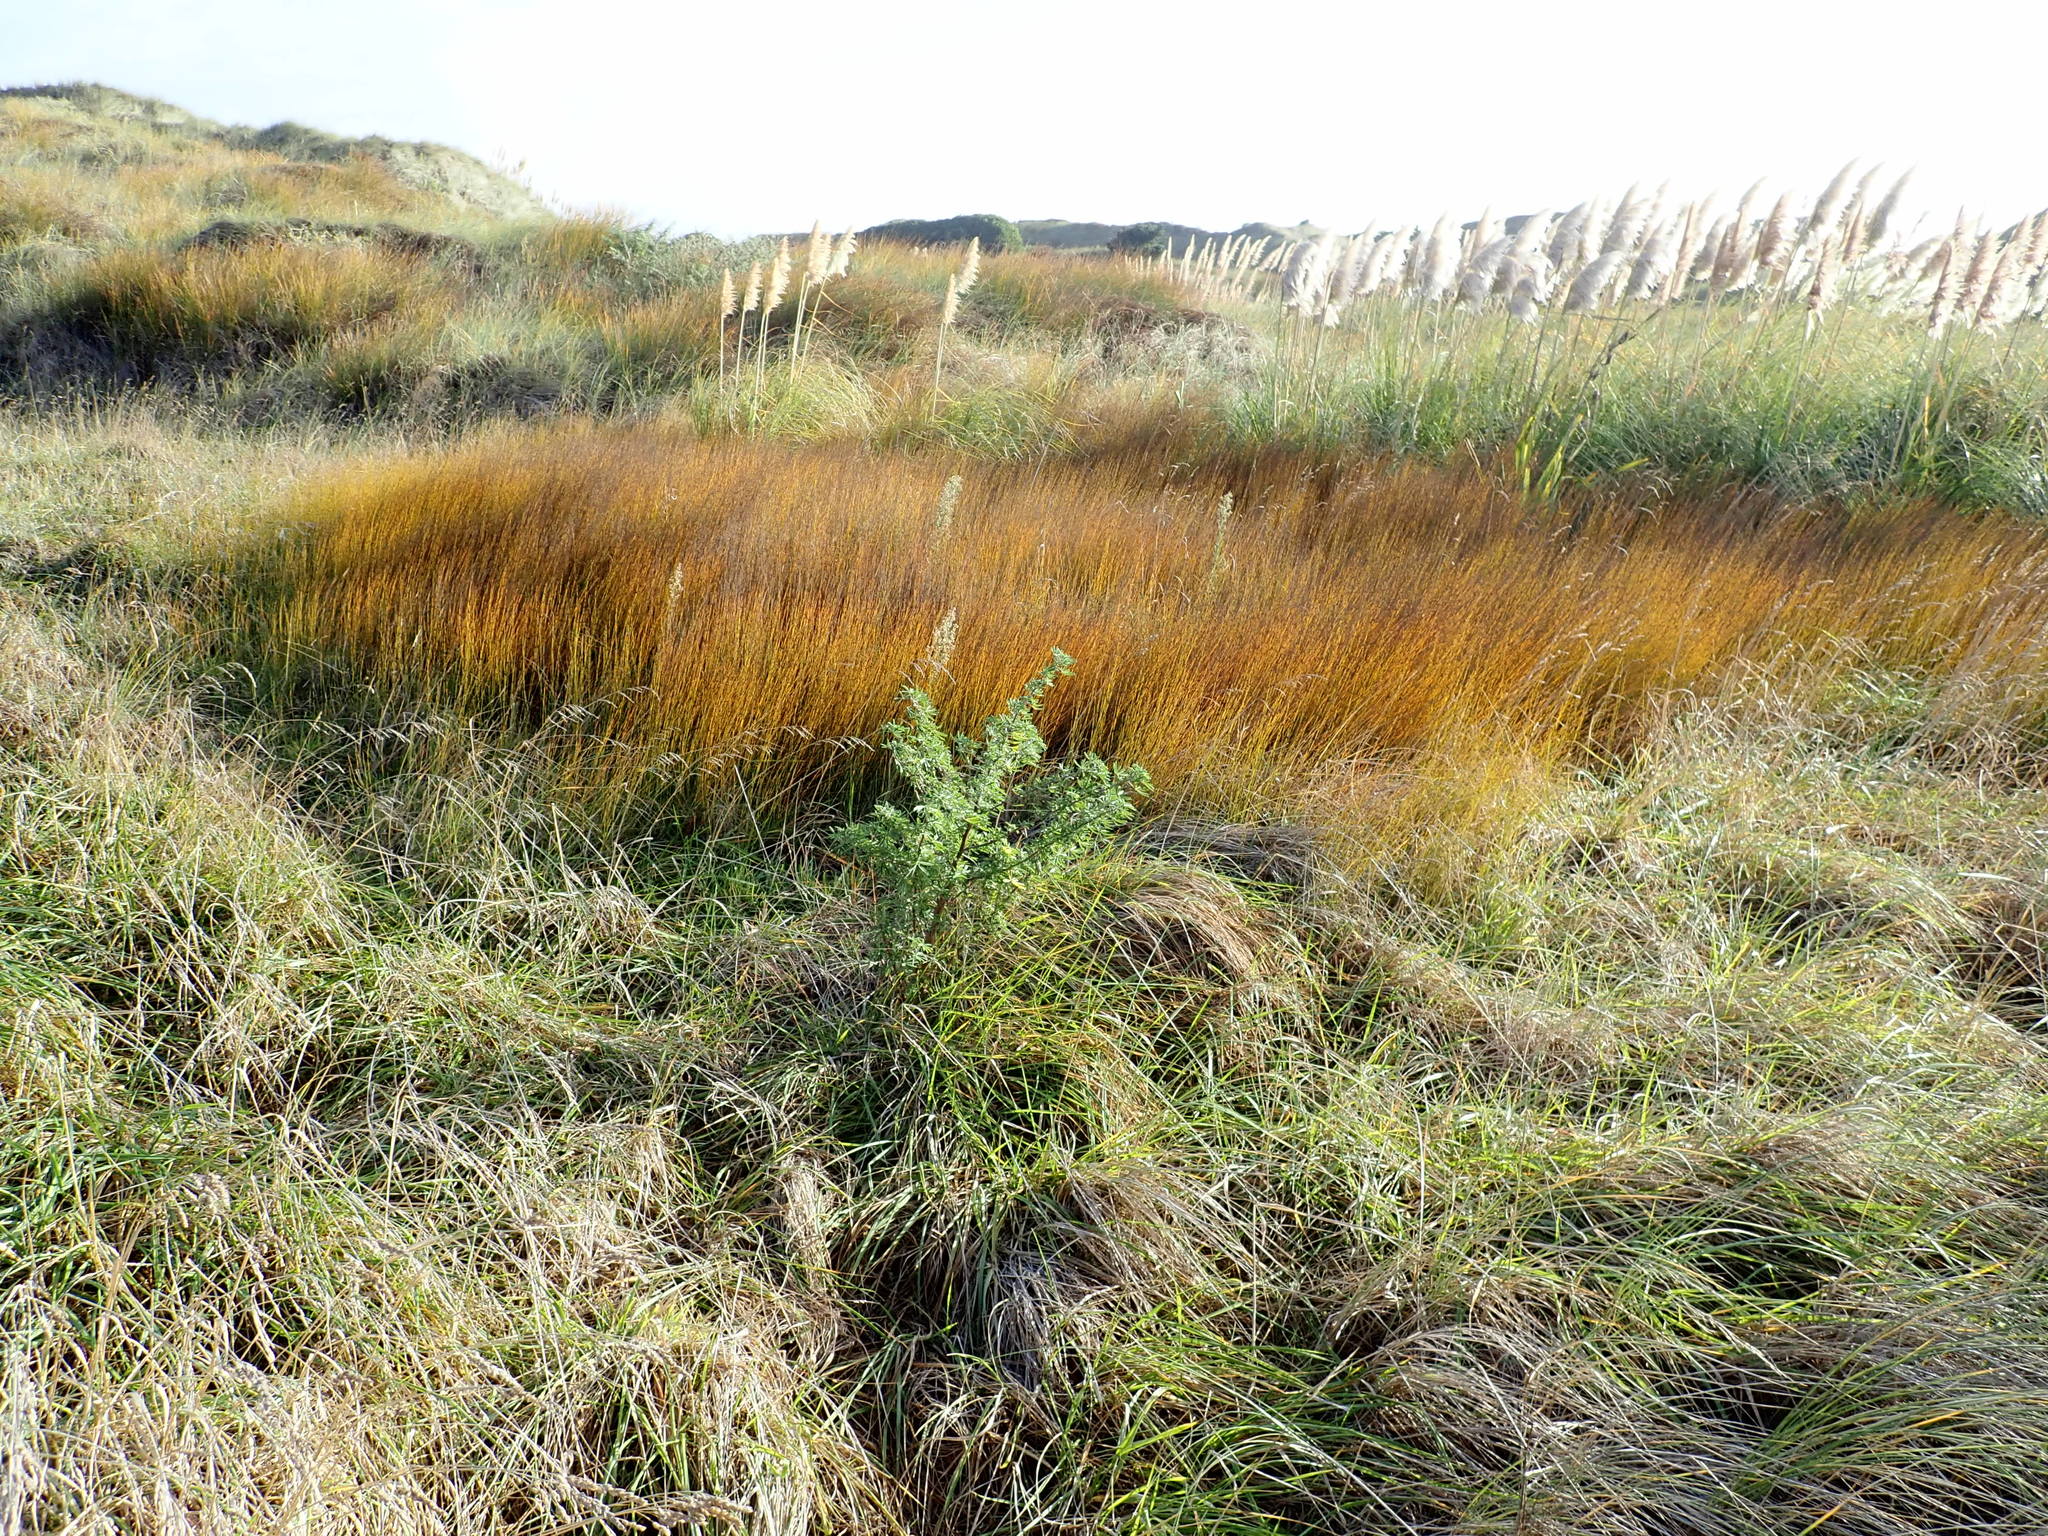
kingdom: Plantae
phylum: Tracheophyta
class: Liliopsida
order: Poales
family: Restionaceae
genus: Apodasmia
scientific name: Apodasmia similis
